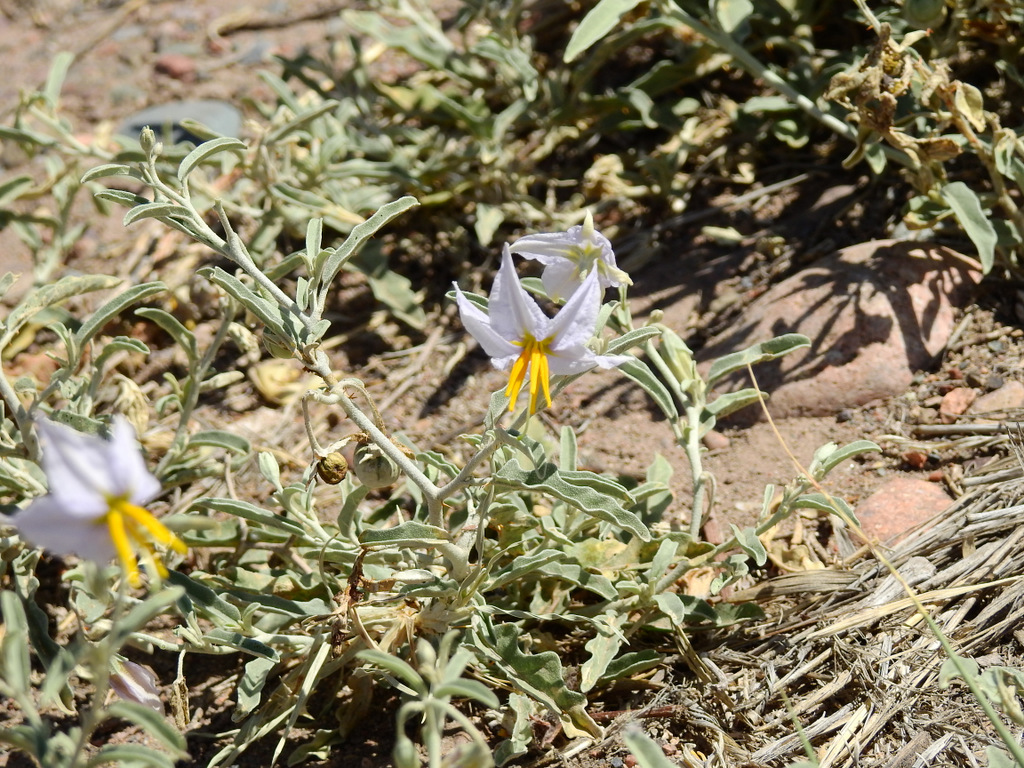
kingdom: Plantae
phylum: Tracheophyta
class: Magnoliopsida
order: Solanales
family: Solanaceae
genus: Solanum
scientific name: Solanum elaeagnifolium
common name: Silverleaf nightshade
